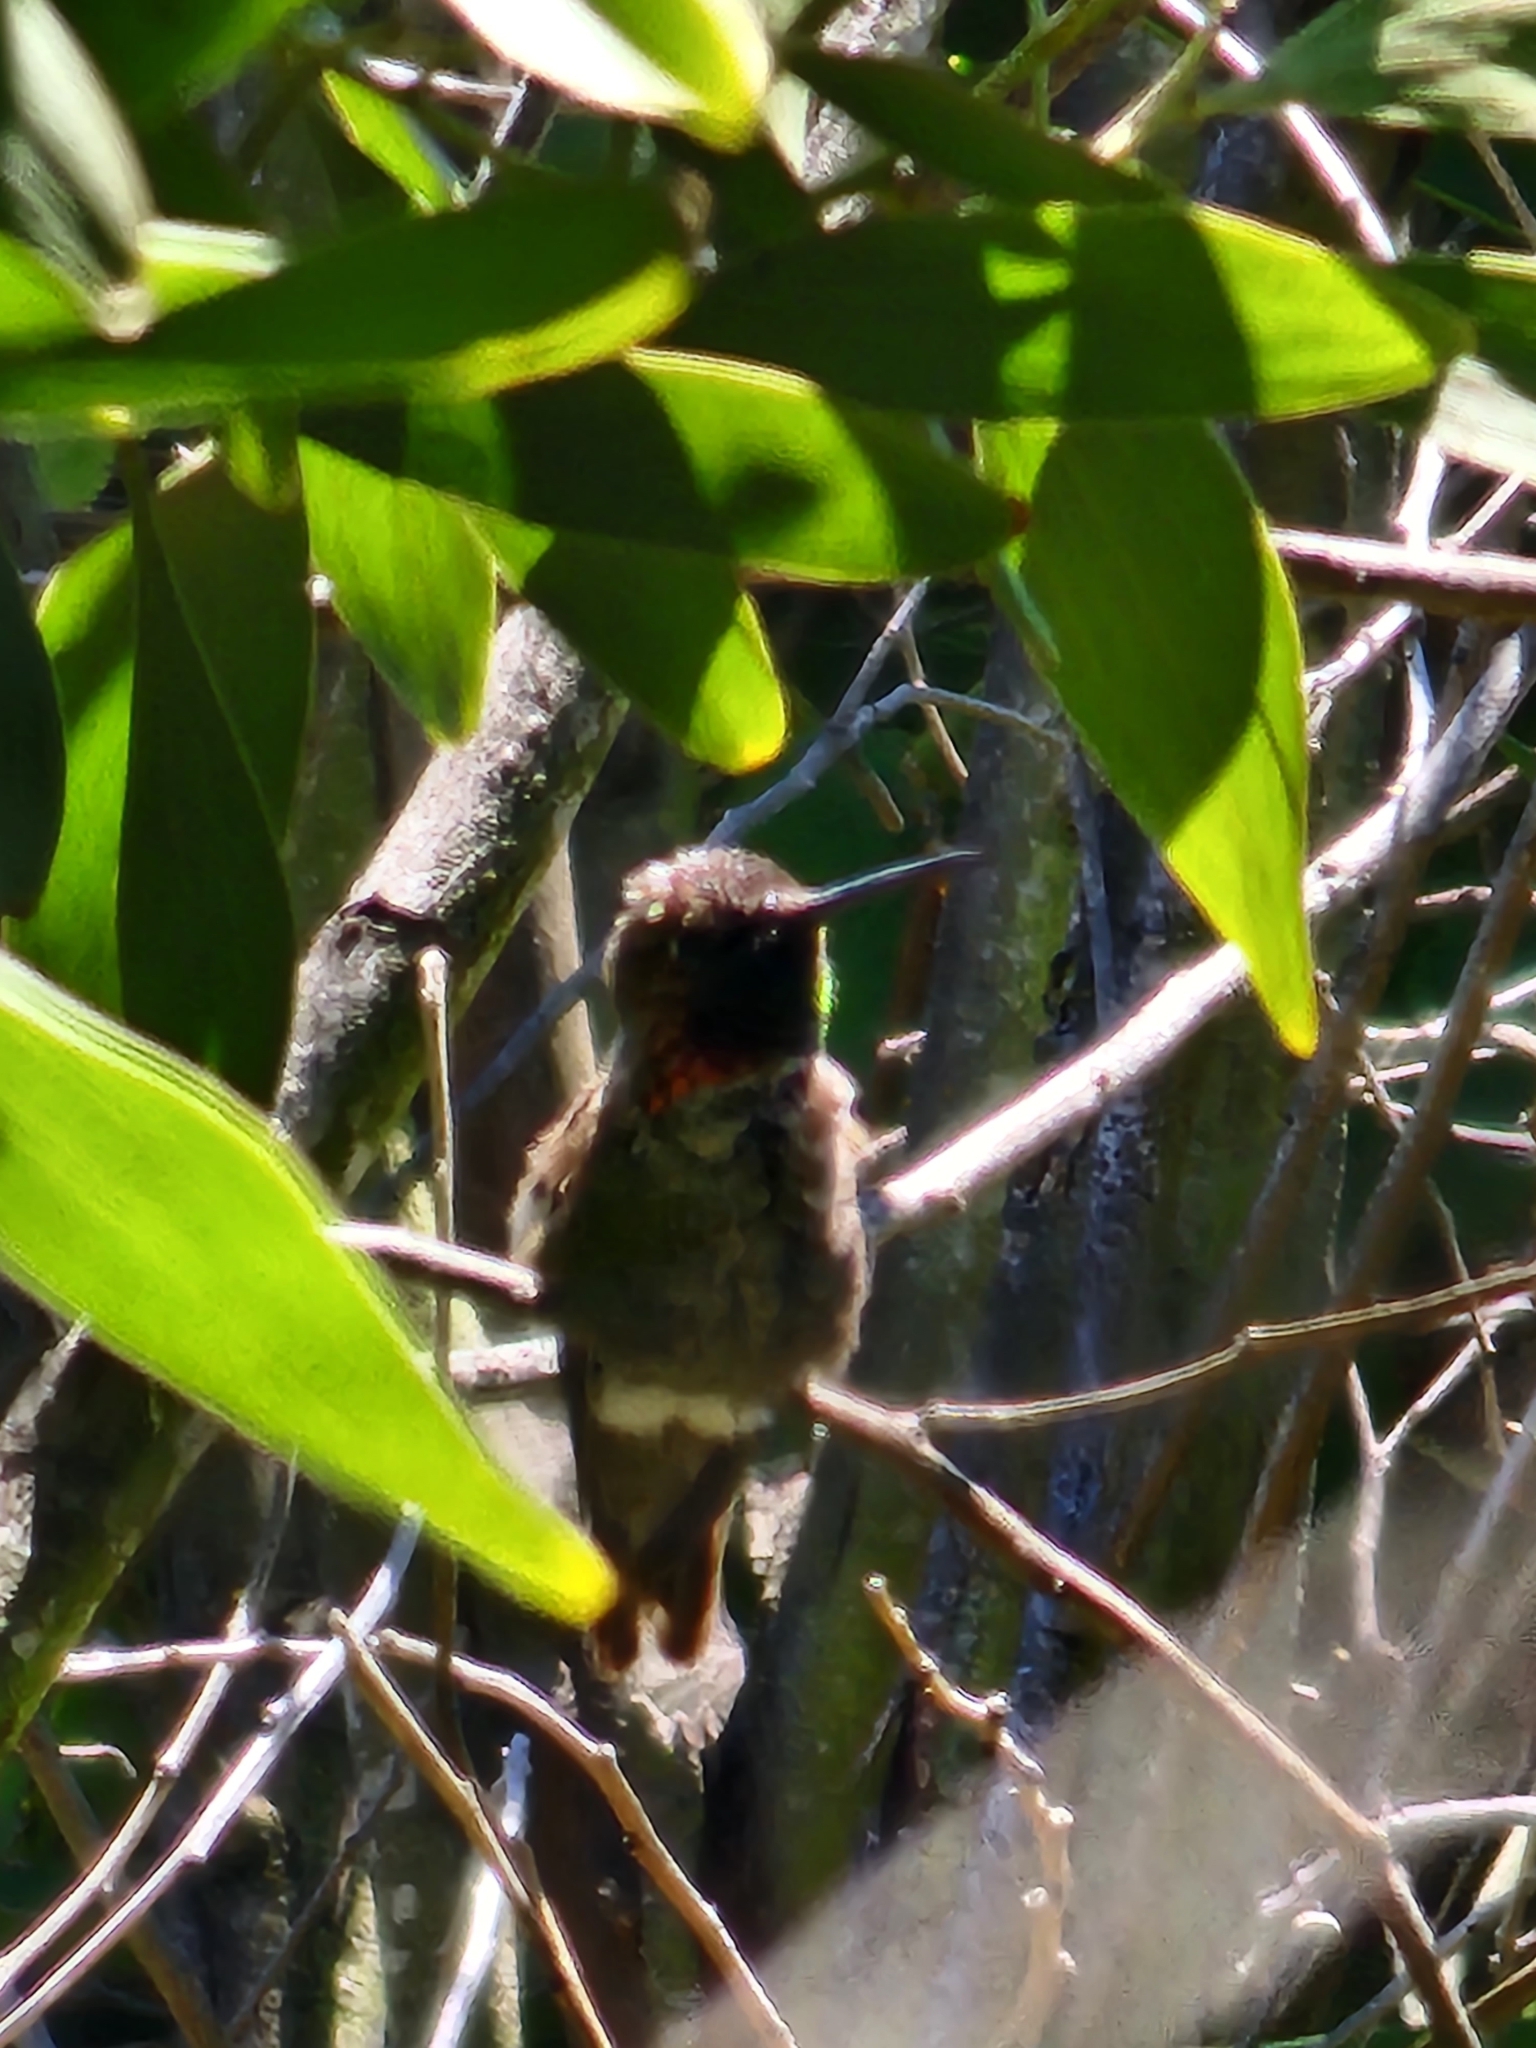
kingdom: Animalia
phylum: Chordata
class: Aves
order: Apodiformes
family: Trochilidae
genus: Calypte
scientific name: Calypte anna
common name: Anna's hummingbird
